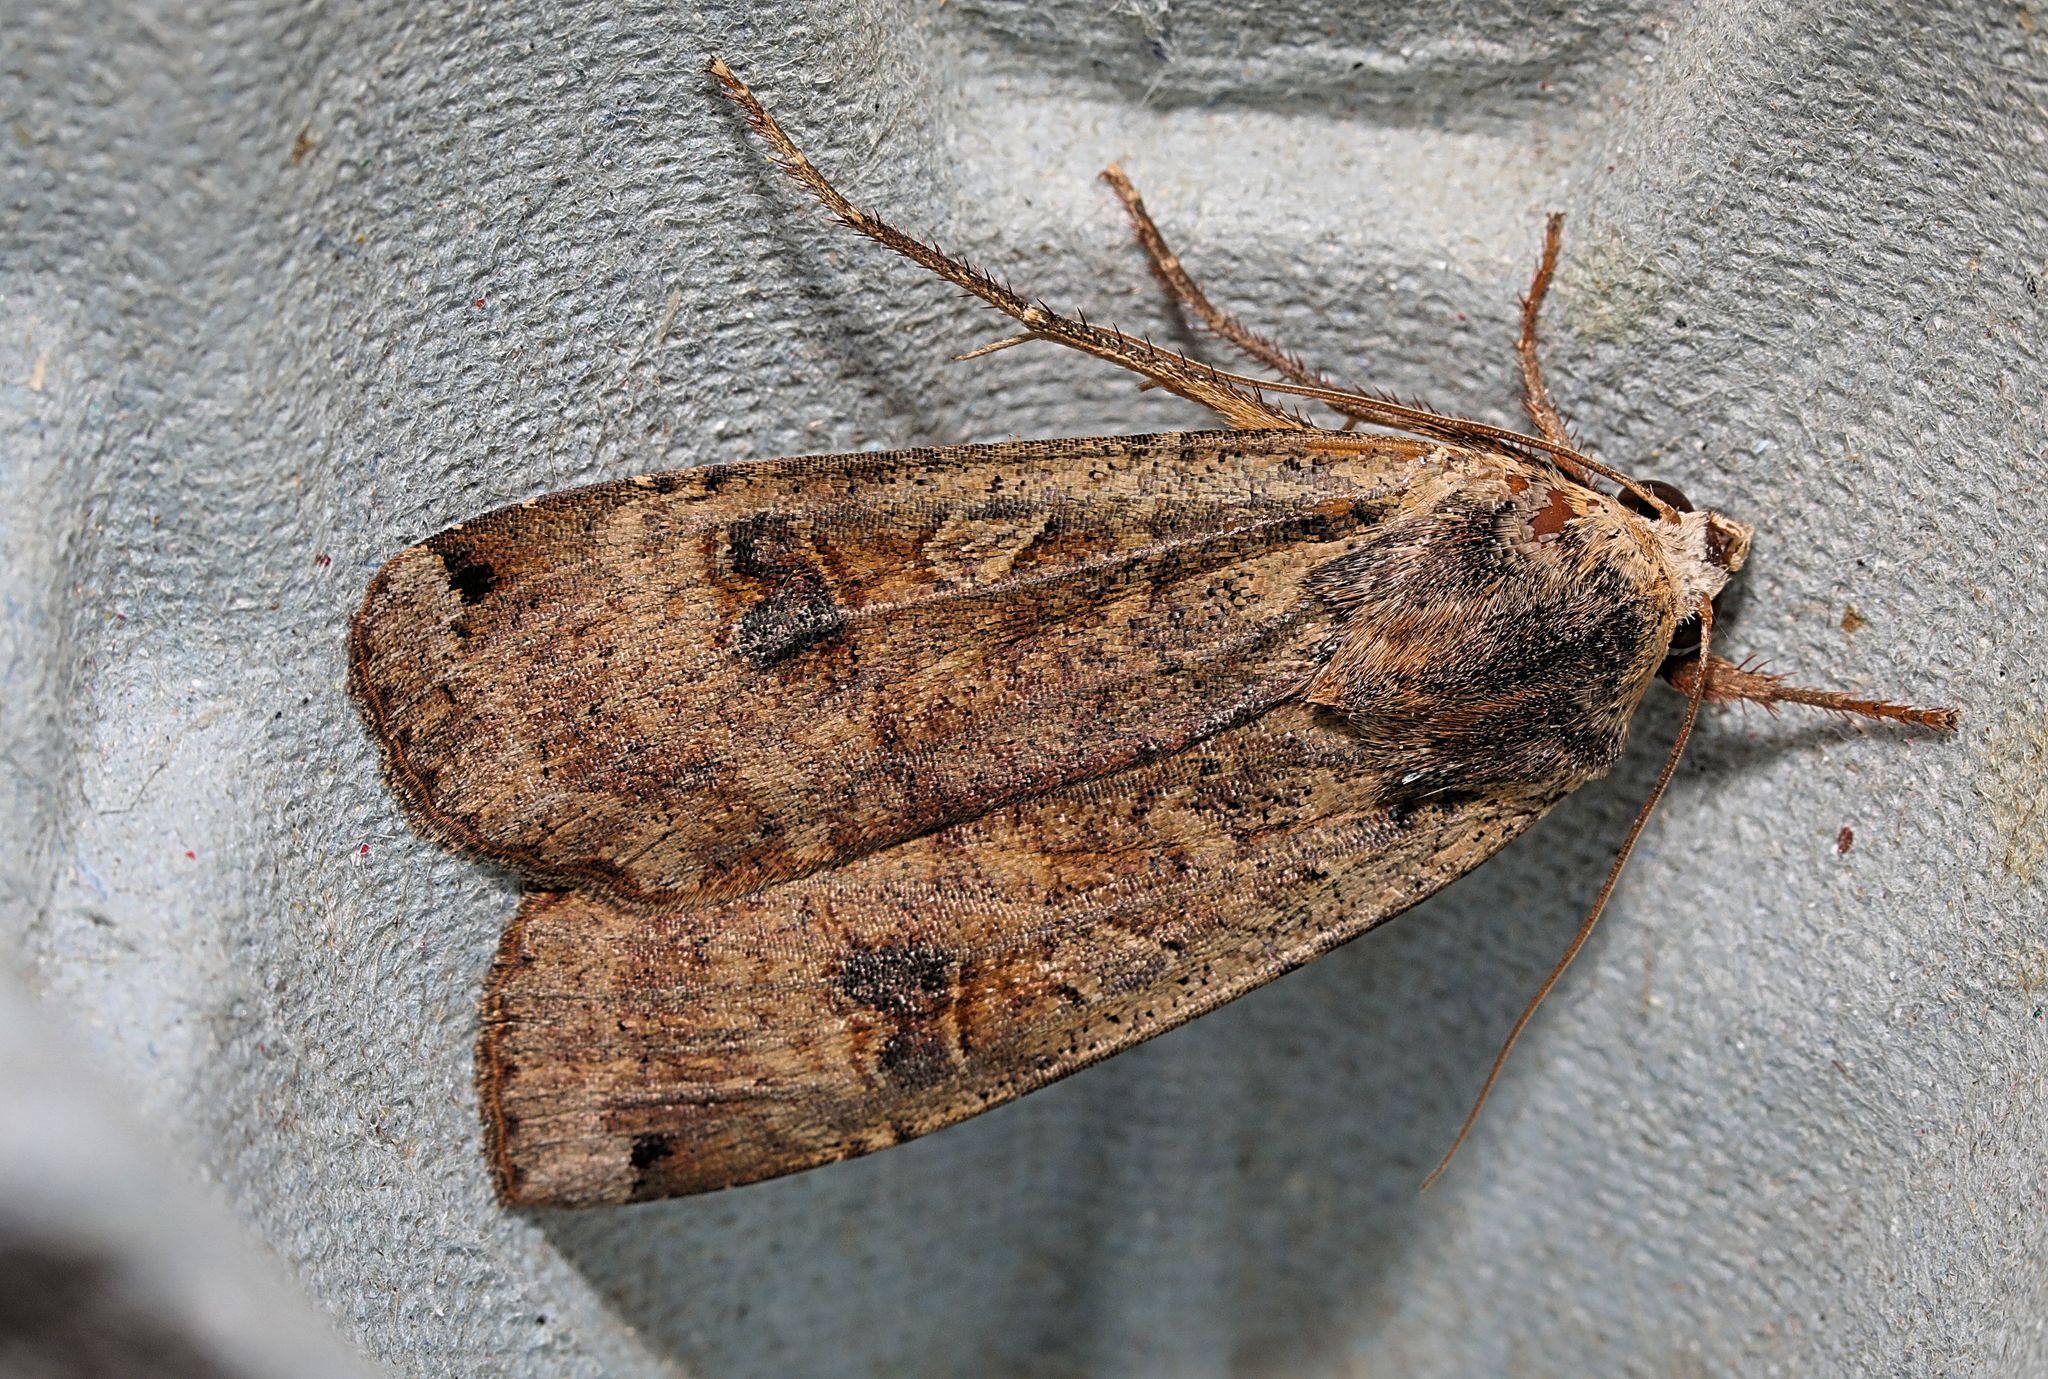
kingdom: Animalia
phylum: Arthropoda
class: Insecta
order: Lepidoptera
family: Noctuidae
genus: Noctua
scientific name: Noctua pronuba
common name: Large yellow underwing
